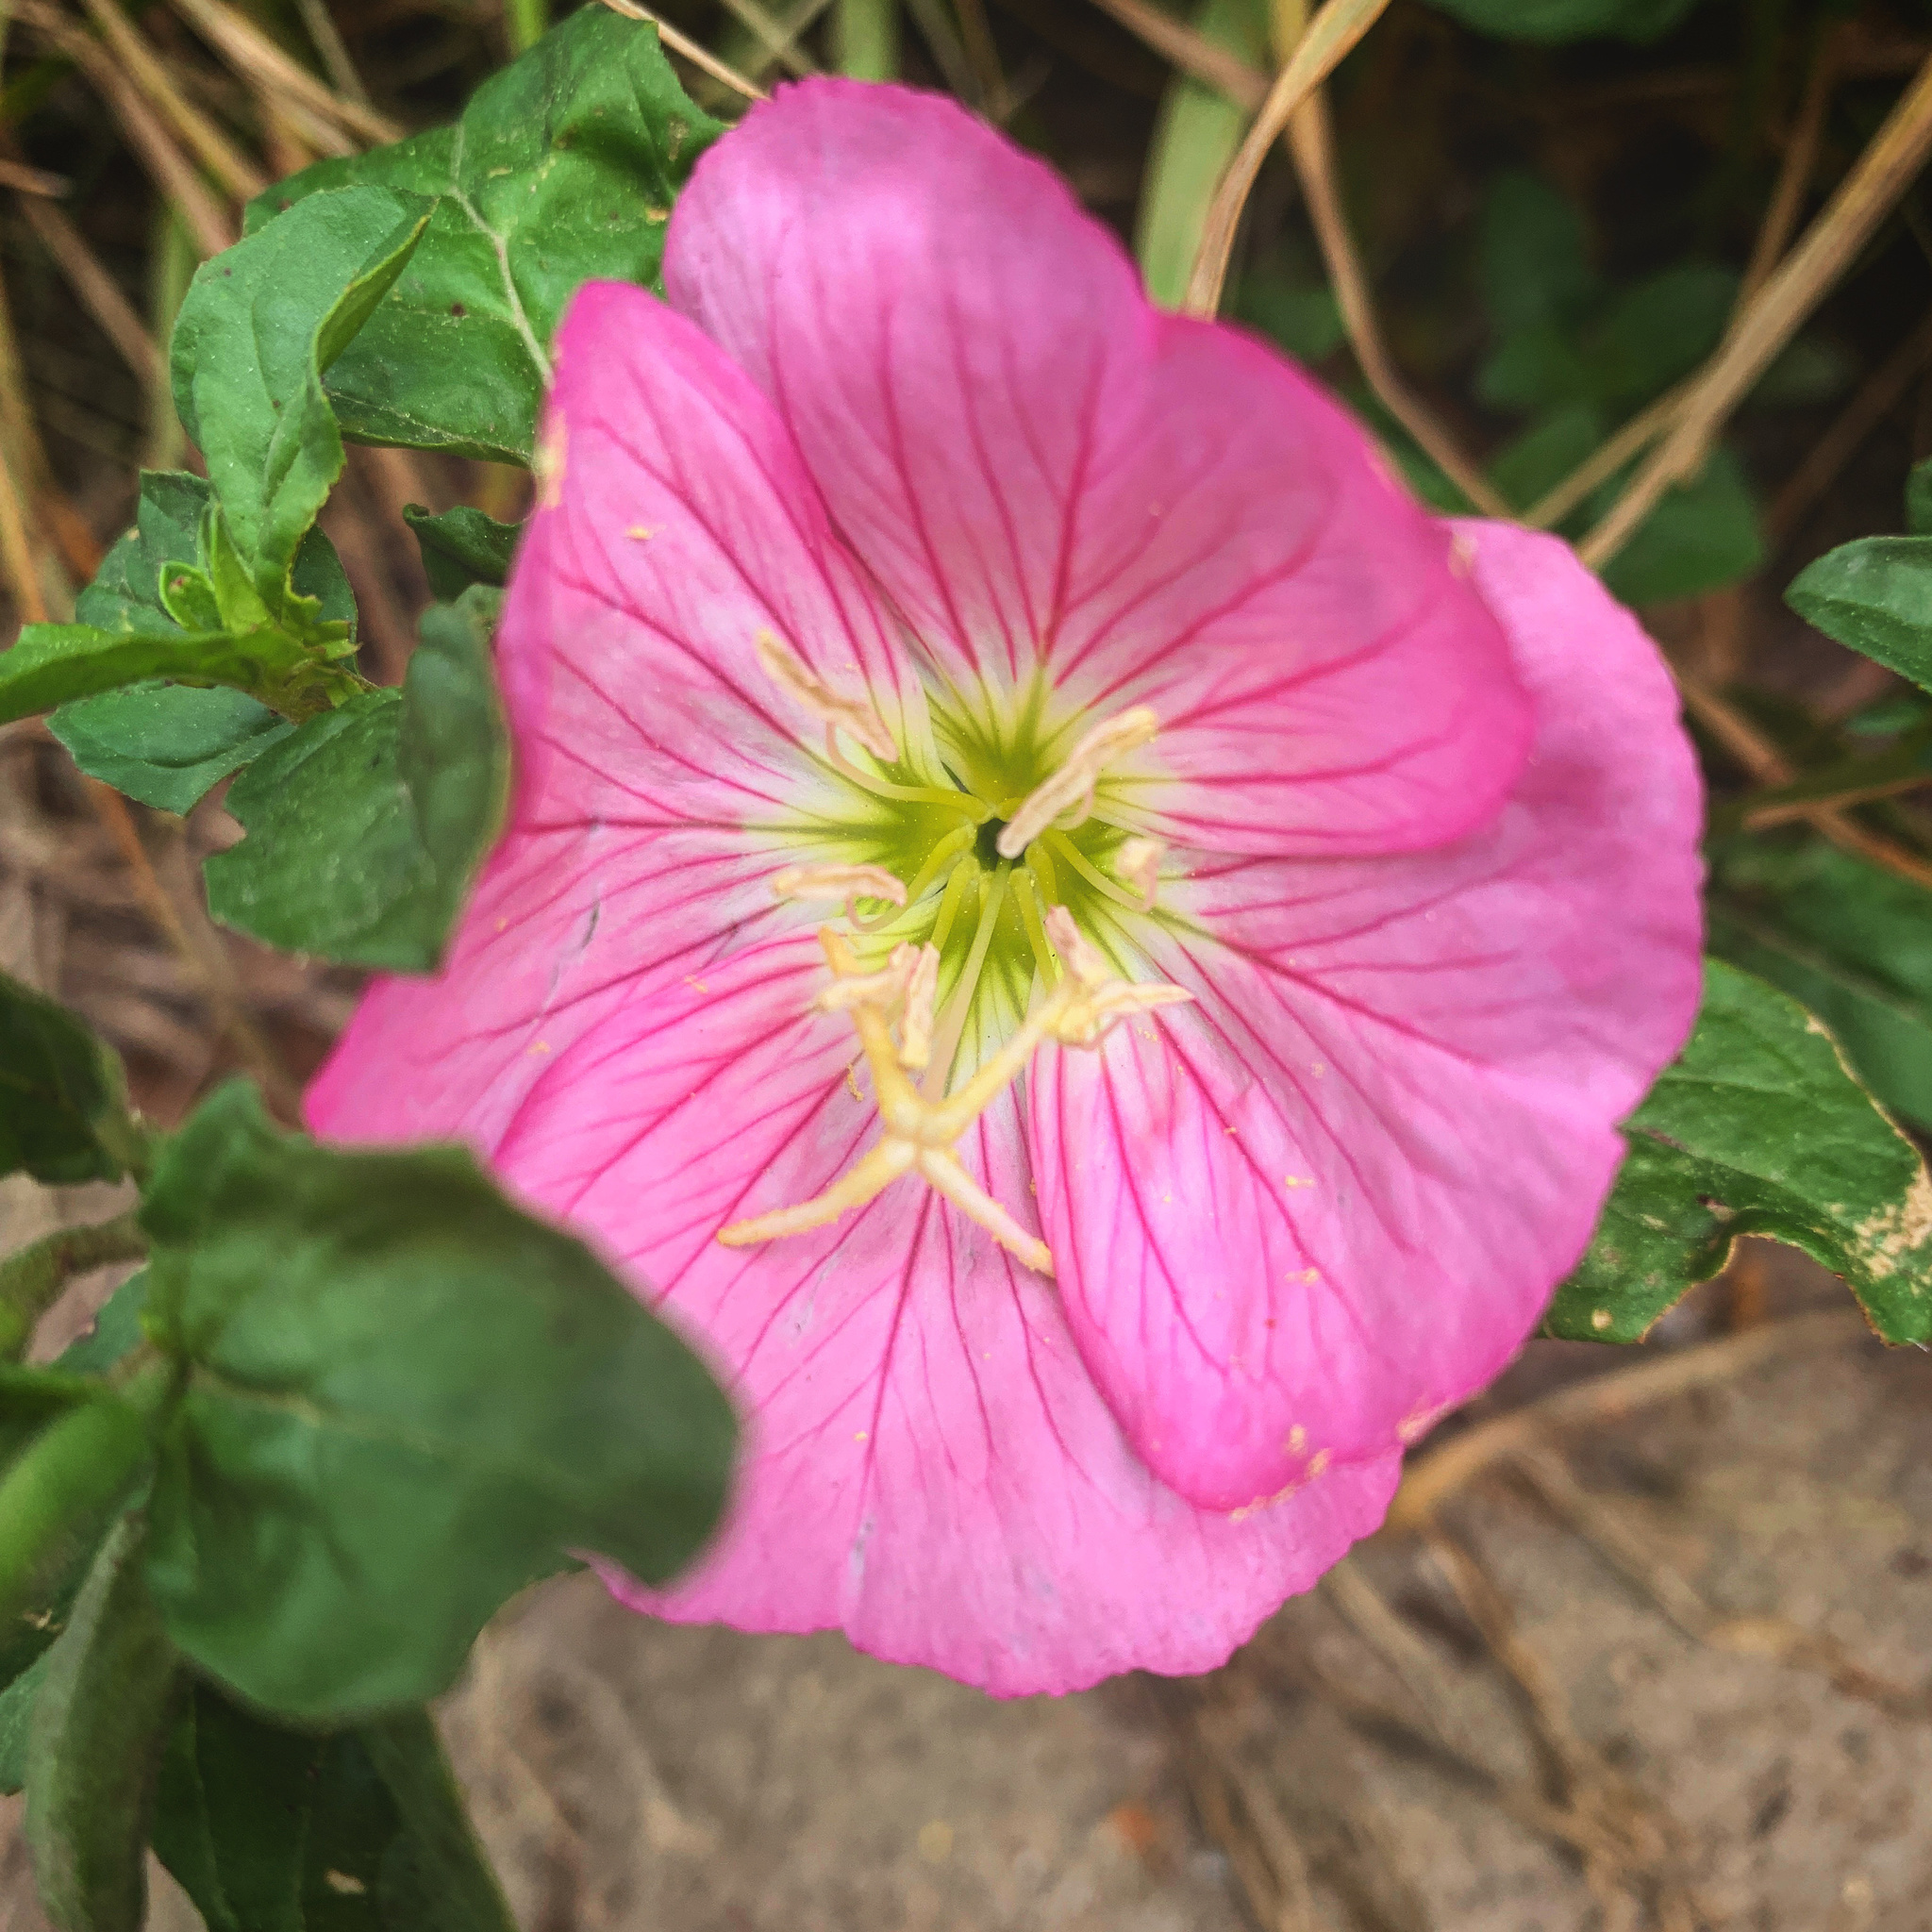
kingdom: Plantae
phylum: Tracheophyta
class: Magnoliopsida
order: Myrtales
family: Onagraceae
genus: Oenothera
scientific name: Oenothera speciosa
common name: White evening-primrose
